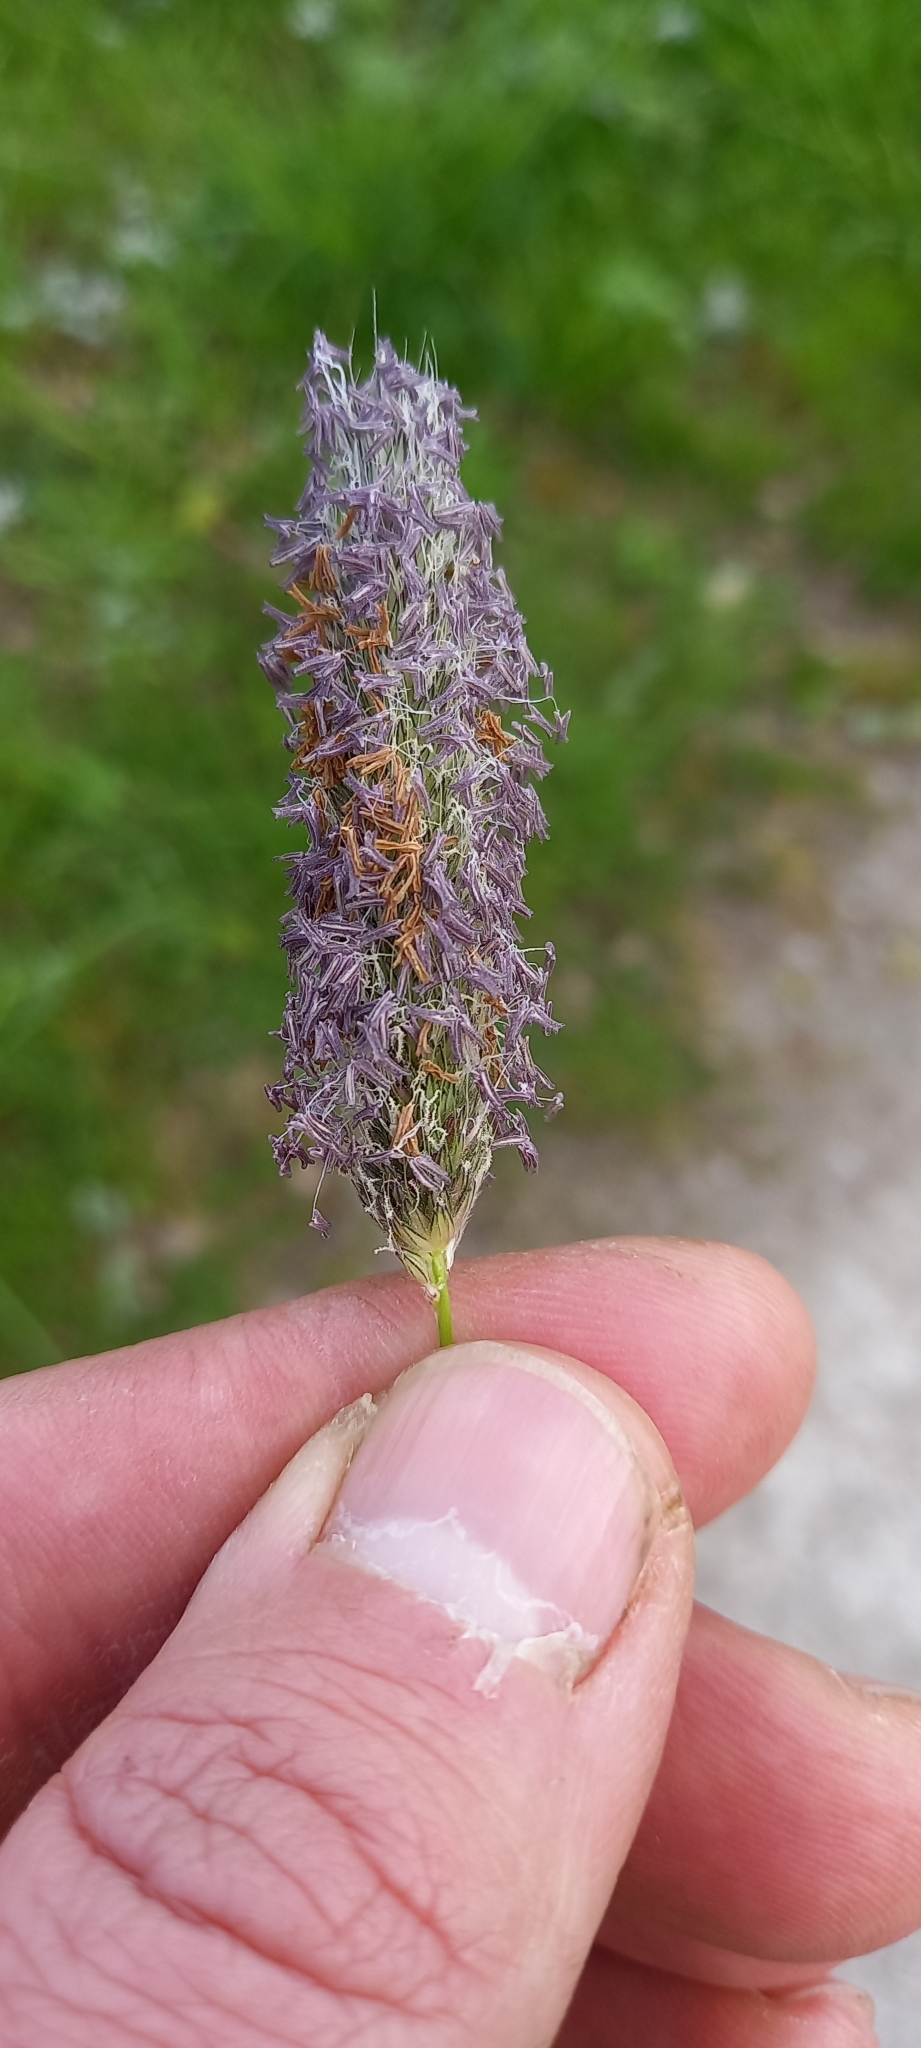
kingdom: Plantae
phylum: Tracheophyta
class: Liliopsida
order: Poales
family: Poaceae
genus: Alopecurus
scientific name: Alopecurus pratensis
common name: Meadow foxtail
